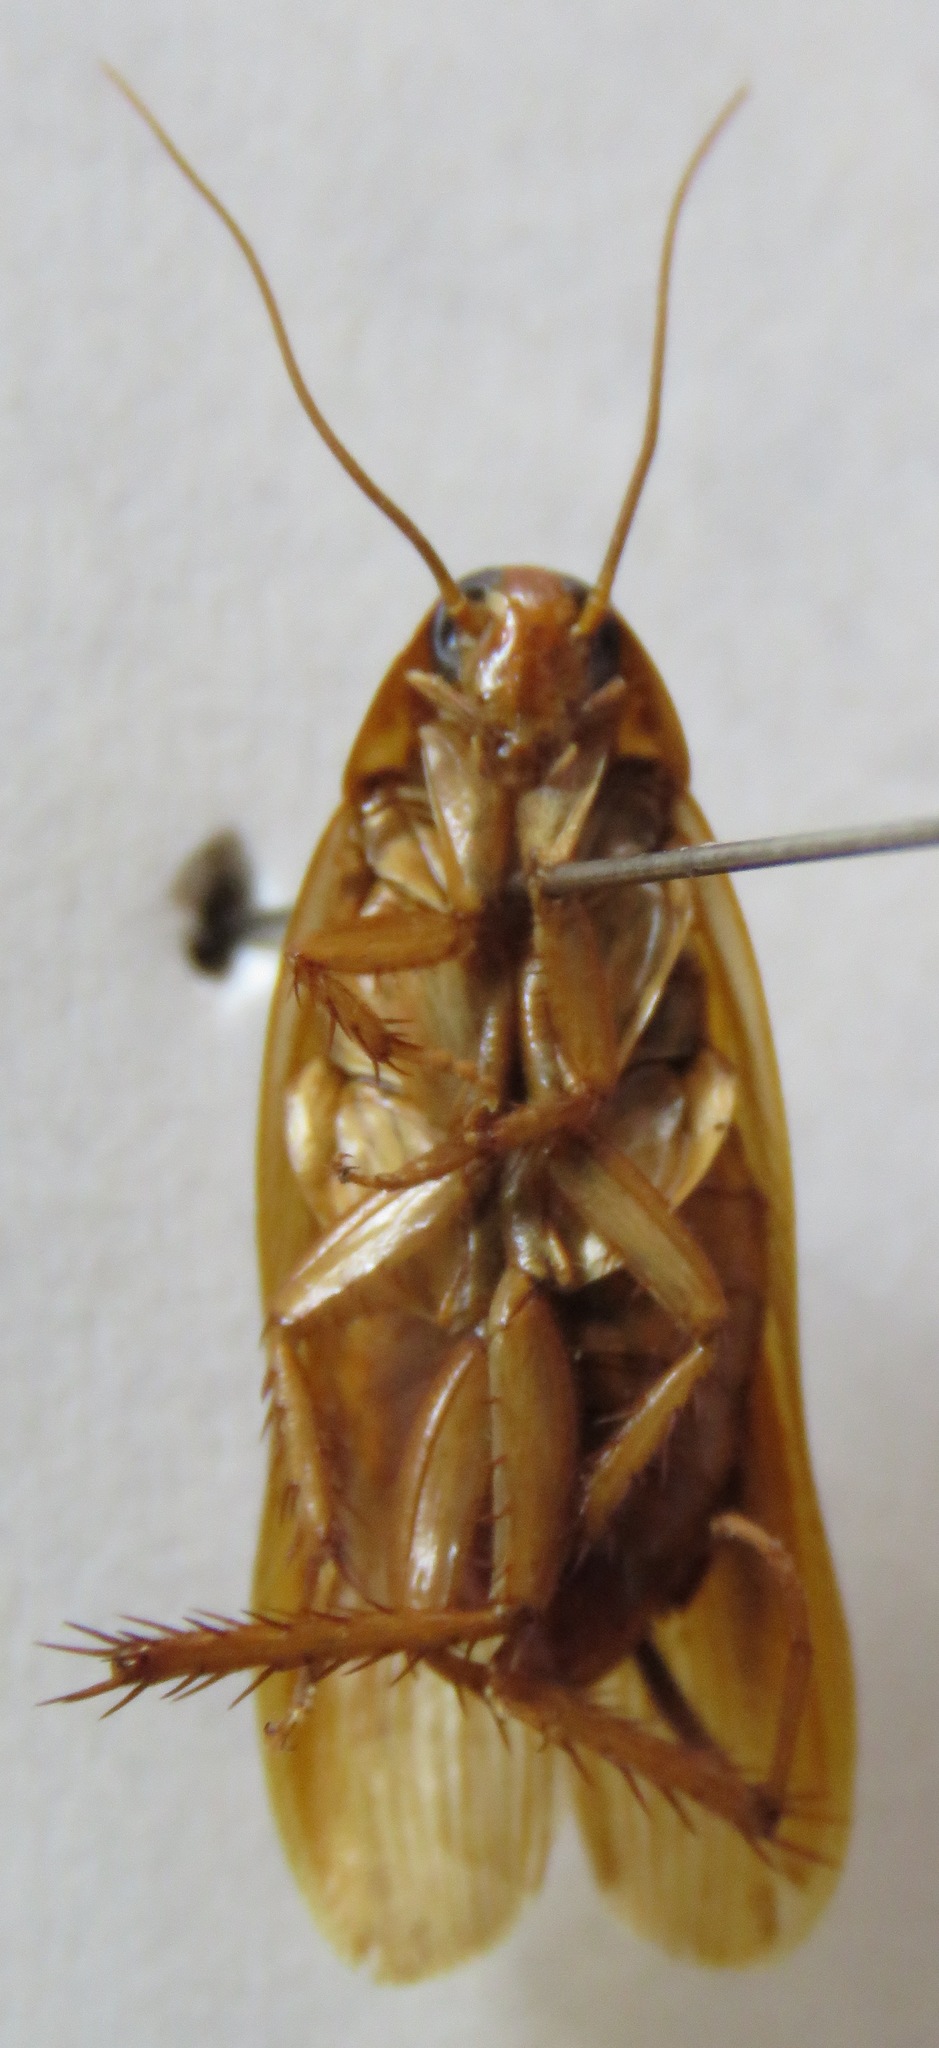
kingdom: Animalia
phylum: Arthropoda
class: Insecta
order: Blattodea
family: Ectobiidae
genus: Ischnoptera
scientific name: Ischnoptera rufa
